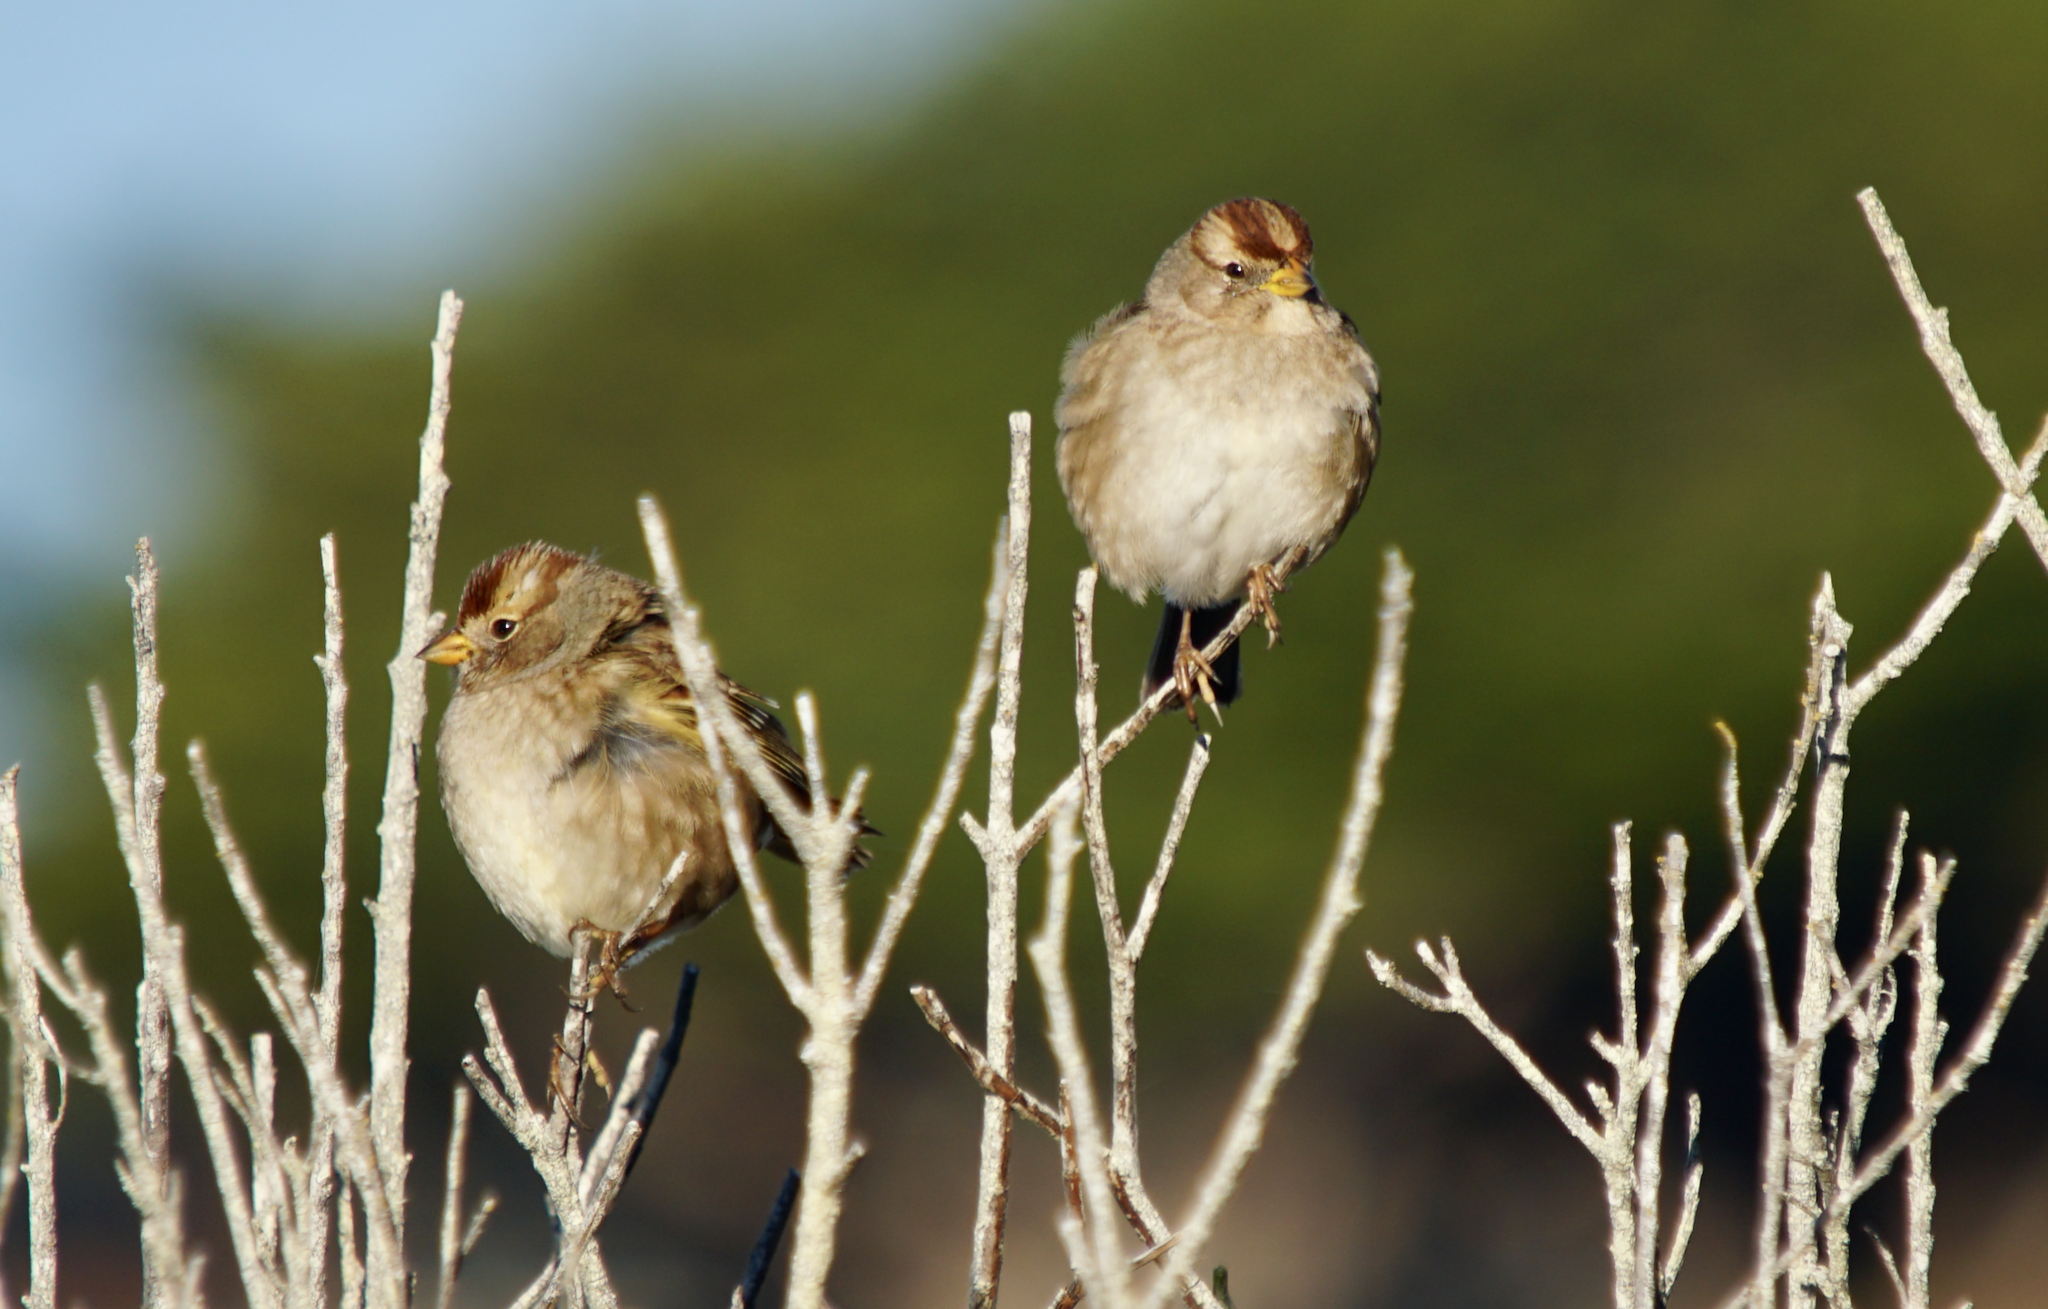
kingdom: Animalia
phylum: Chordata
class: Aves
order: Passeriformes
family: Passerellidae
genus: Zonotrichia
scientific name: Zonotrichia leucophrys
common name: White-crowned sparrow
